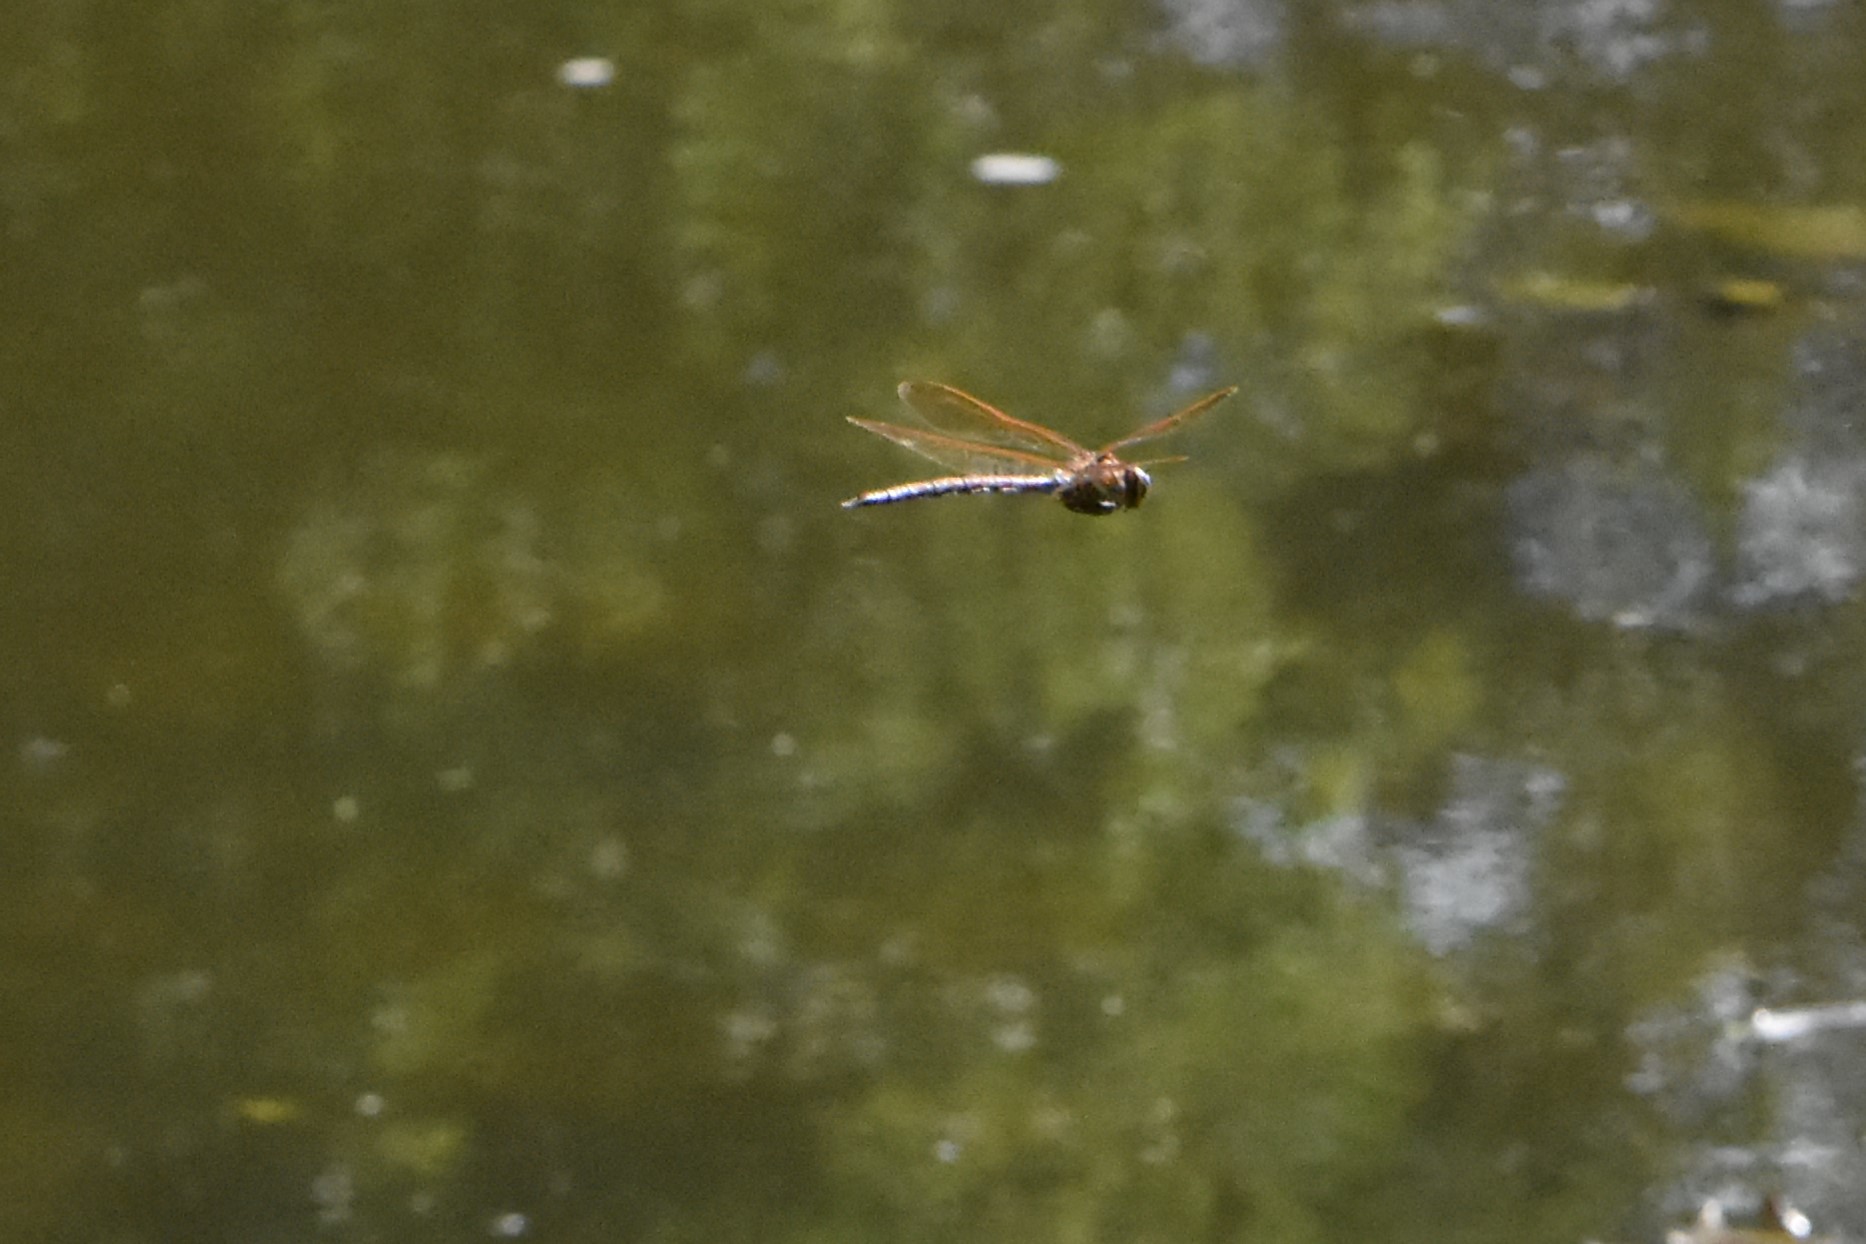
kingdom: Animalia
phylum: Arthropoda
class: Insecta
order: Odonata
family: Aeshnidae
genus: Aeshna
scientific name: Aeshna grandis
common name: Brown hawker
